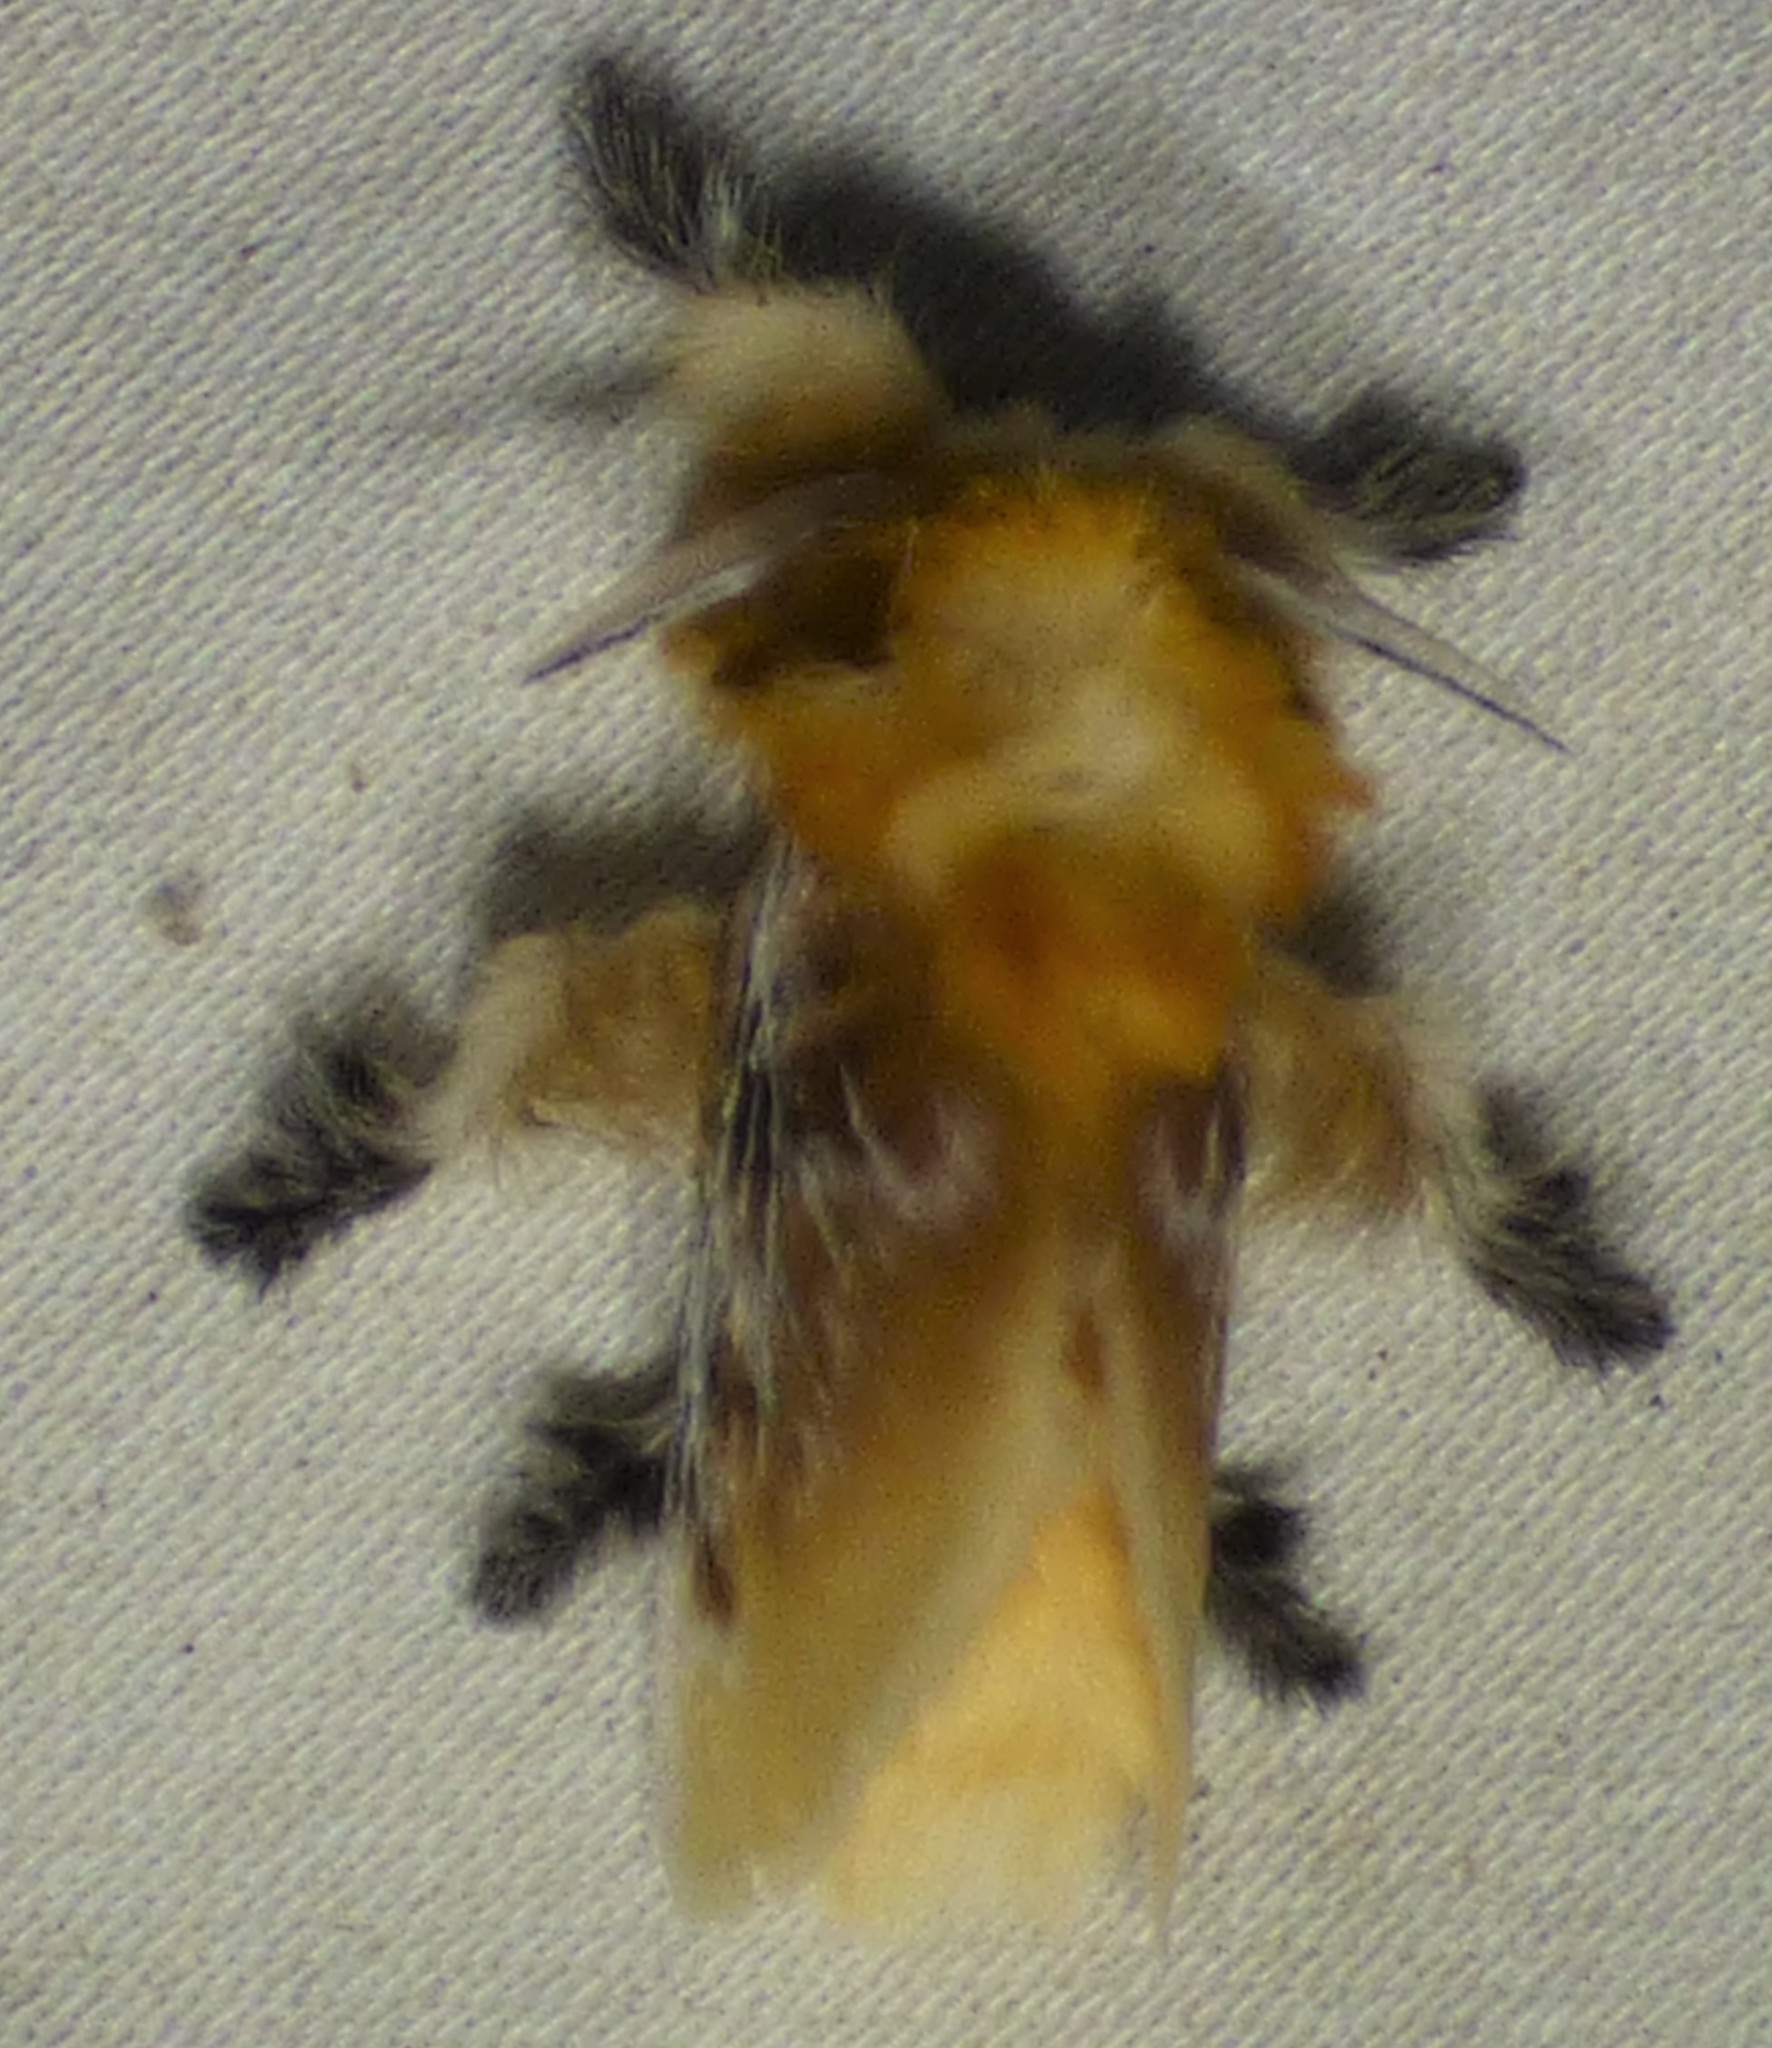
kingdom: Animalia
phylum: Arthropoda
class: Insecta
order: Lepidoptera
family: Megalopygidae
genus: Megalopyge
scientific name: Megalopyge opercularis
